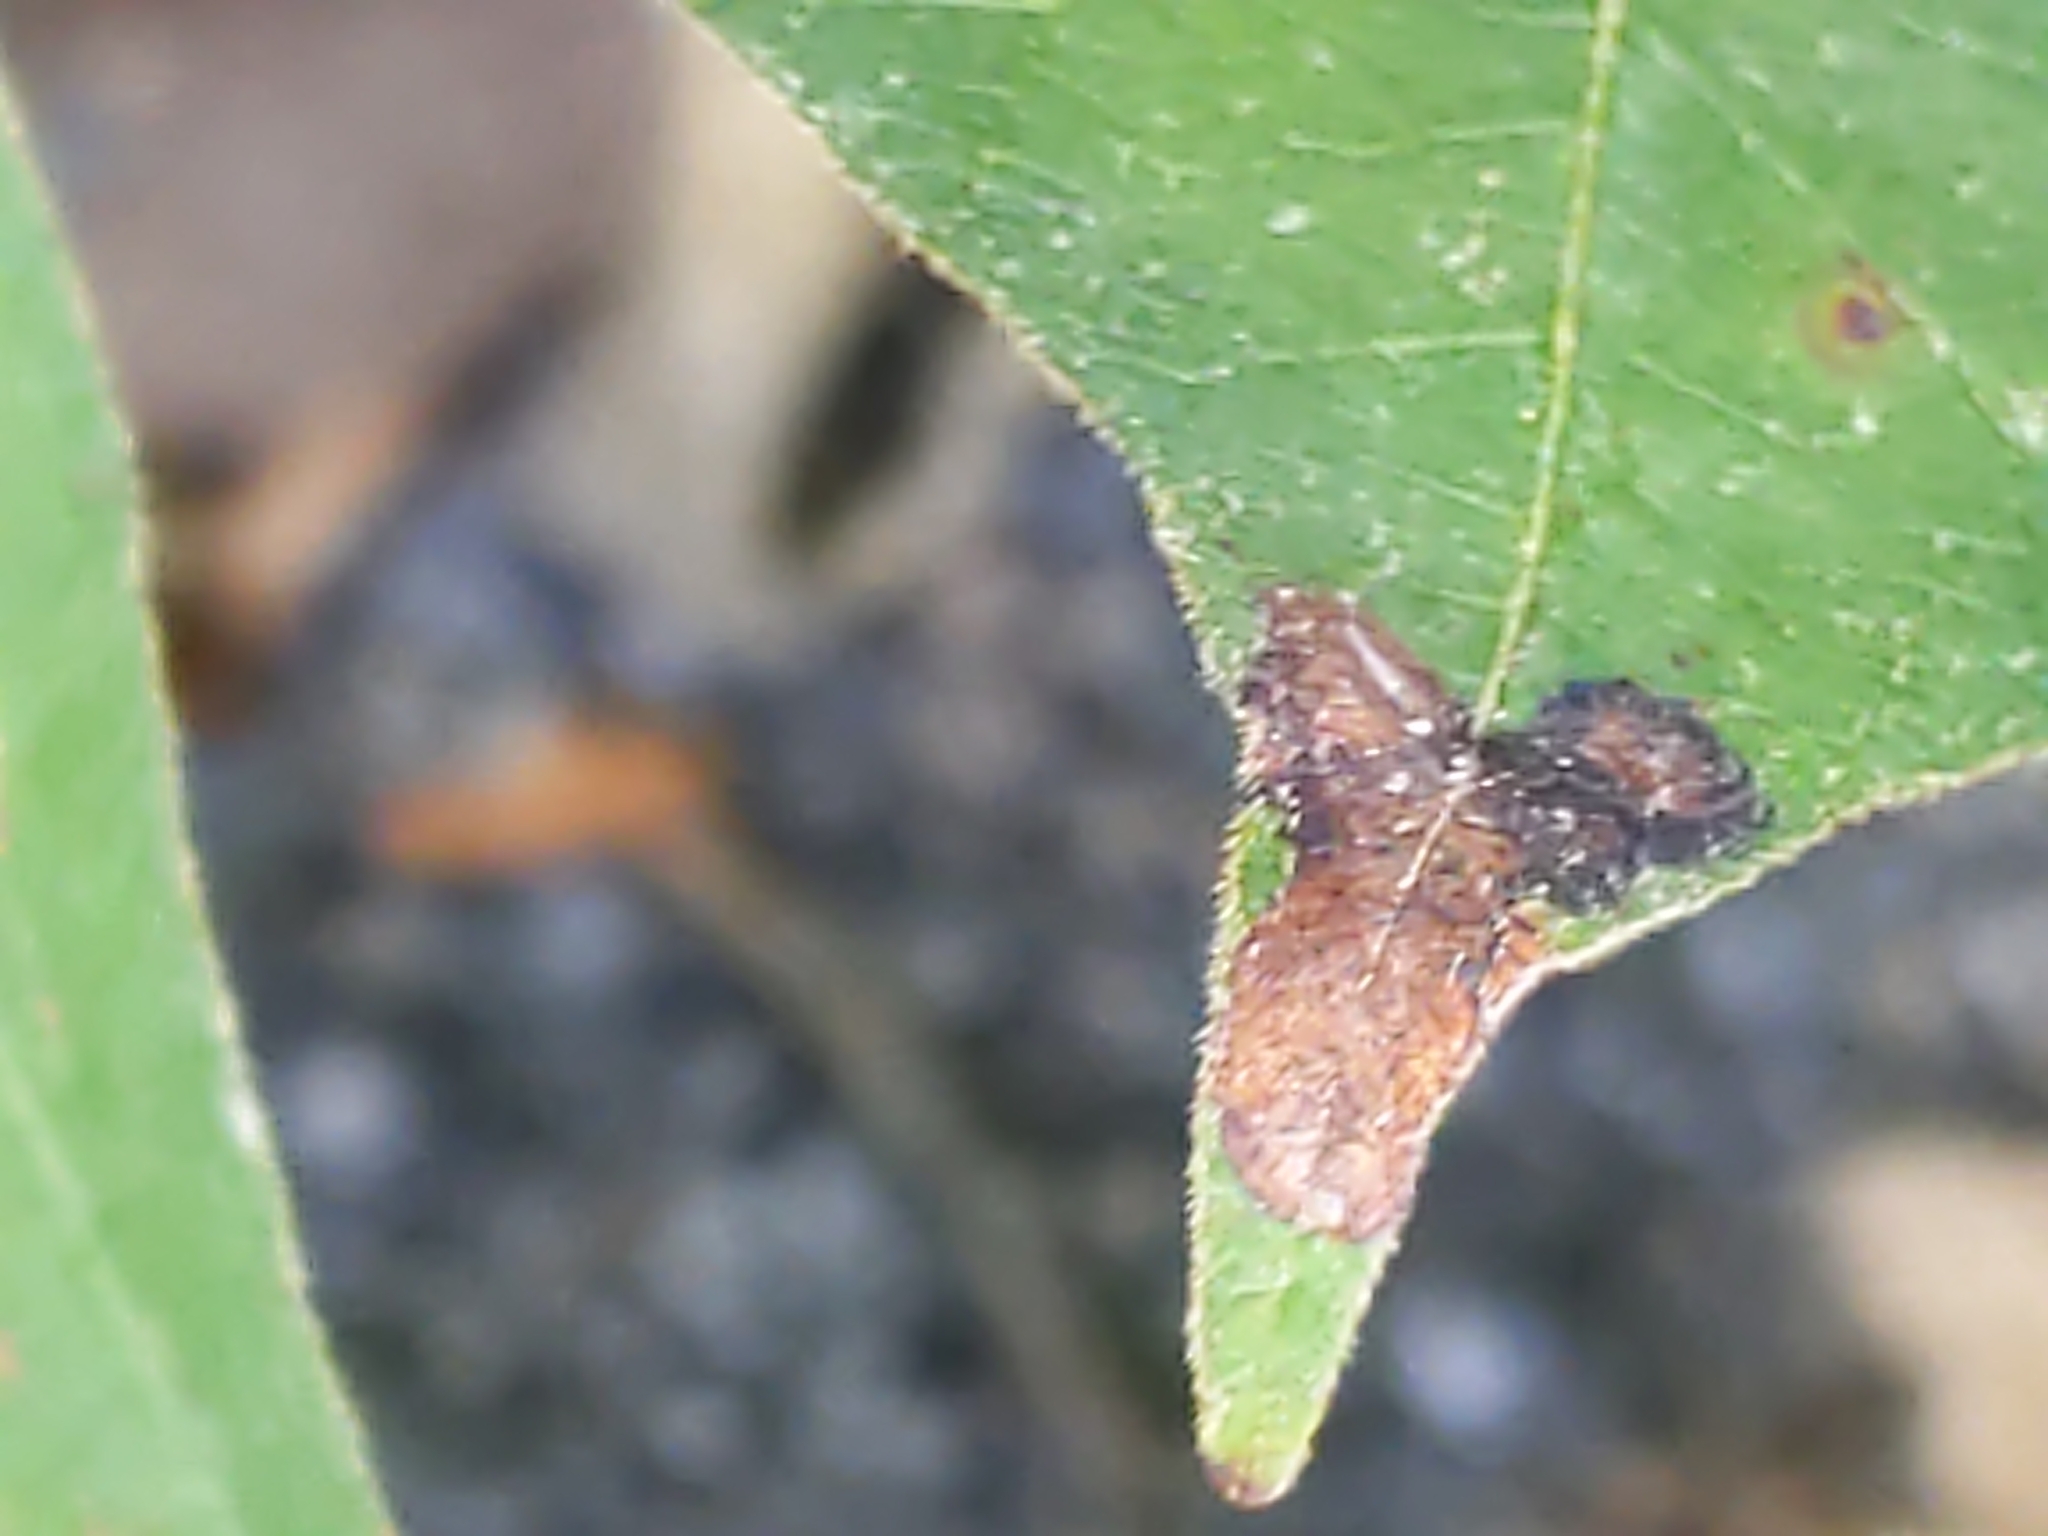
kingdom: Animalia
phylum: Arthropoda
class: Insecta
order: Lepidoptera
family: Gracillariidae
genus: Cameraria
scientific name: Cameraria guttifinitella
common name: Poison ivy leaf-miner moth
